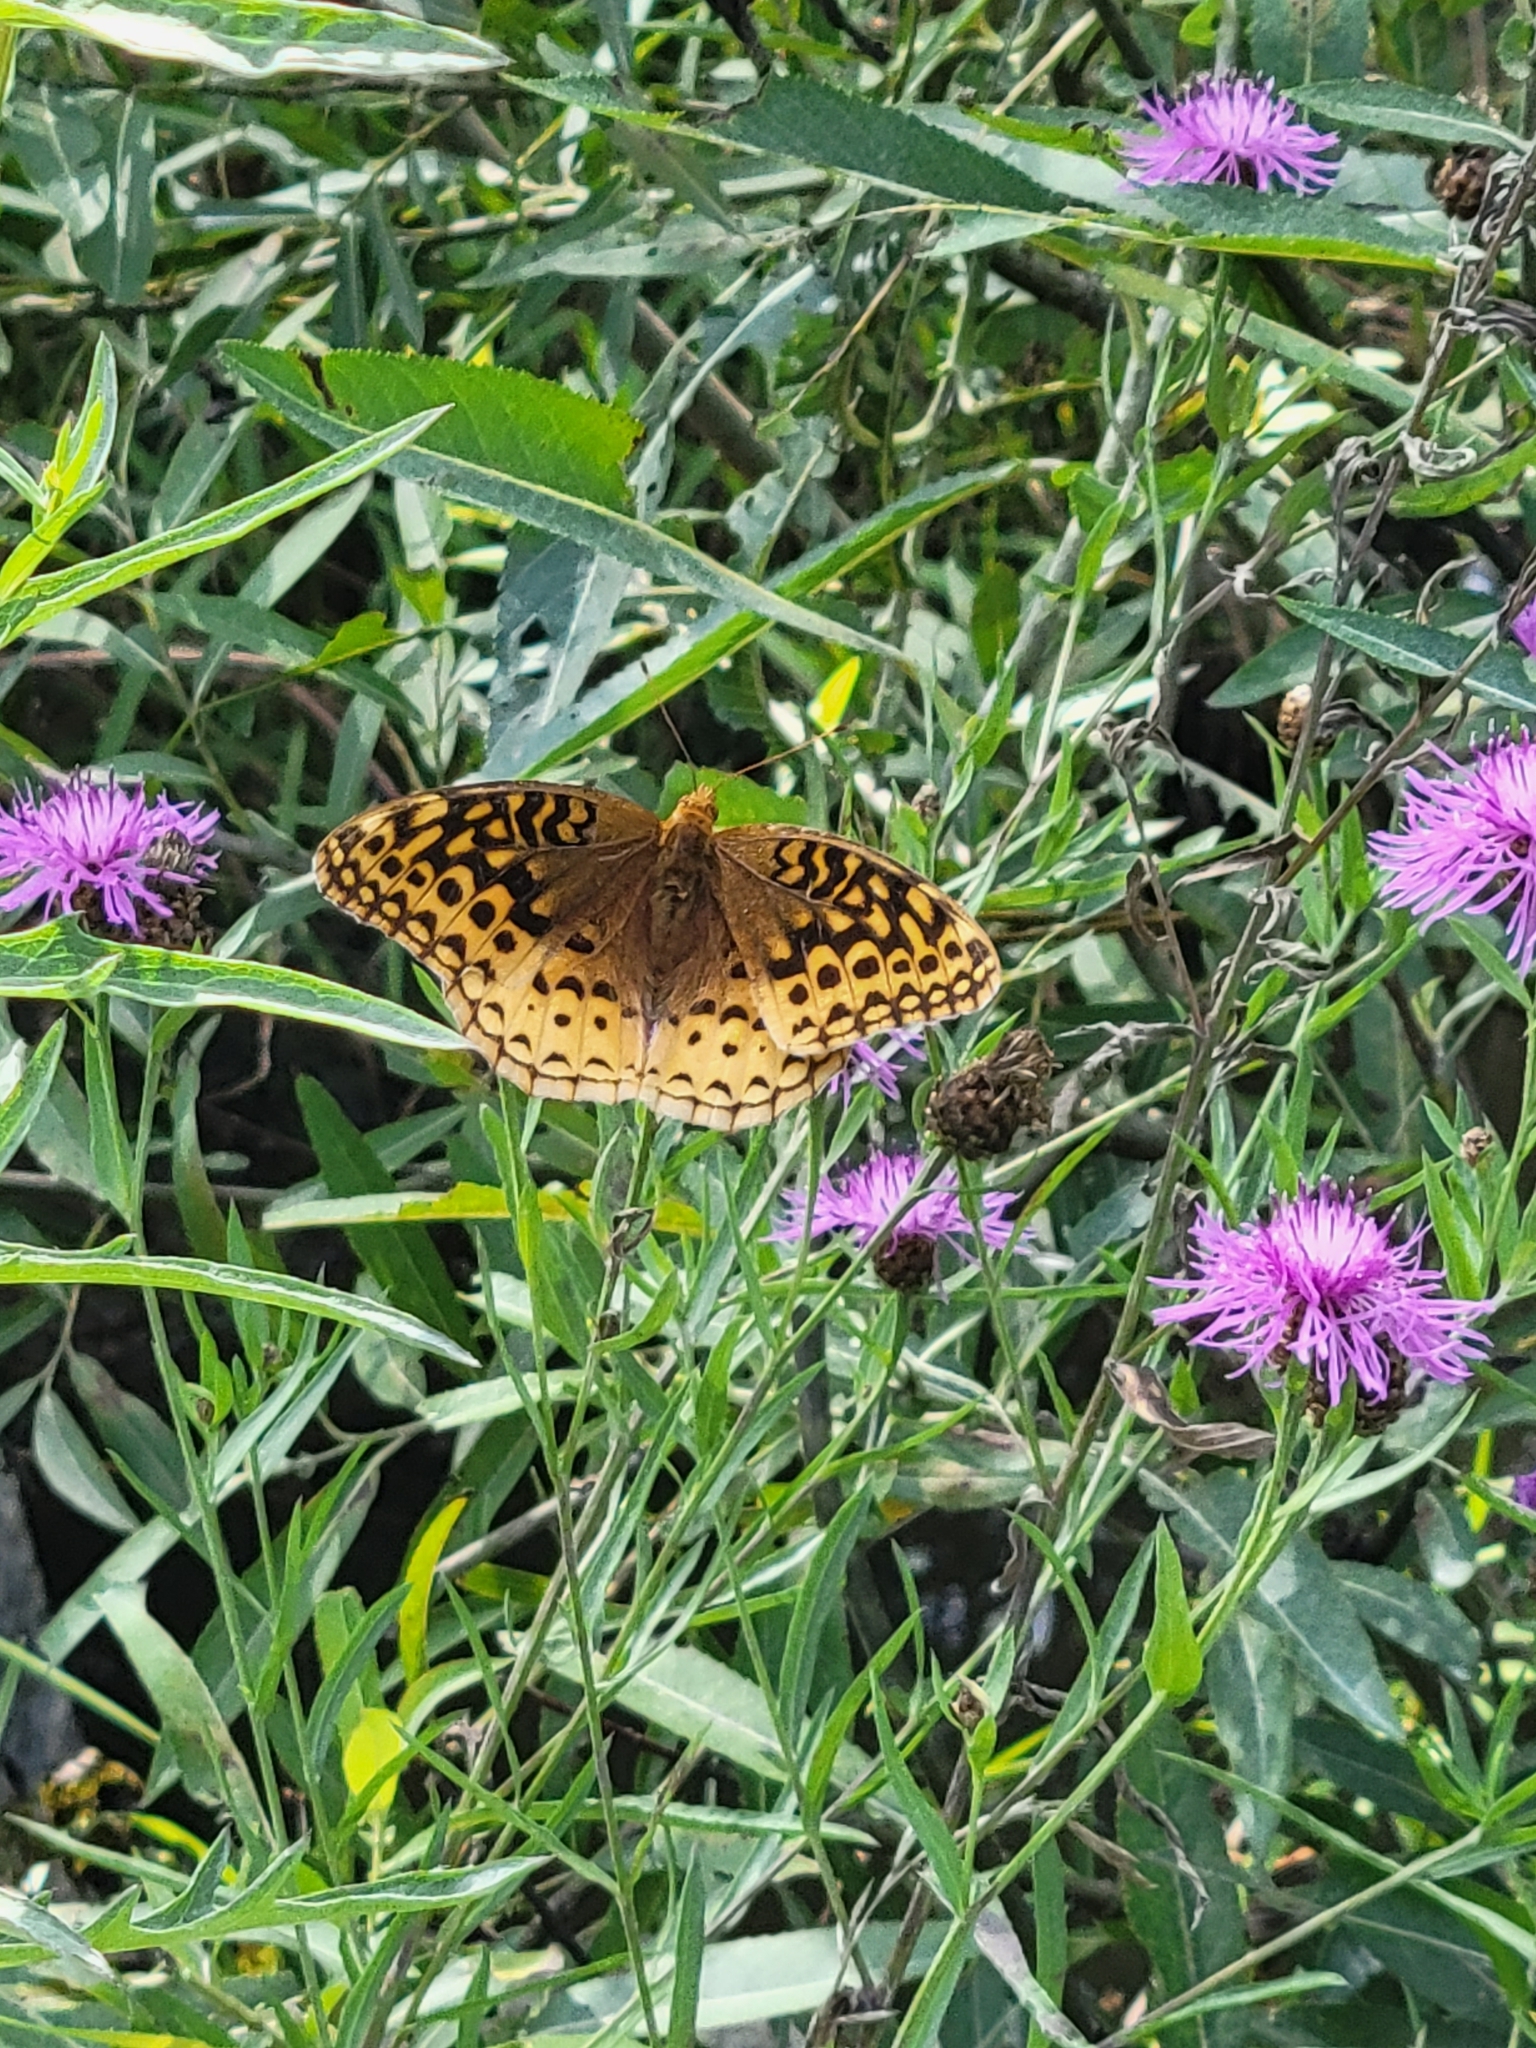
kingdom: Animalia
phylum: Arthropoda
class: Insecta
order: Lepidoptera
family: Nymphalidae
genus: Speyeria
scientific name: Speyeria cybele
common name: Great spangled fritillary
